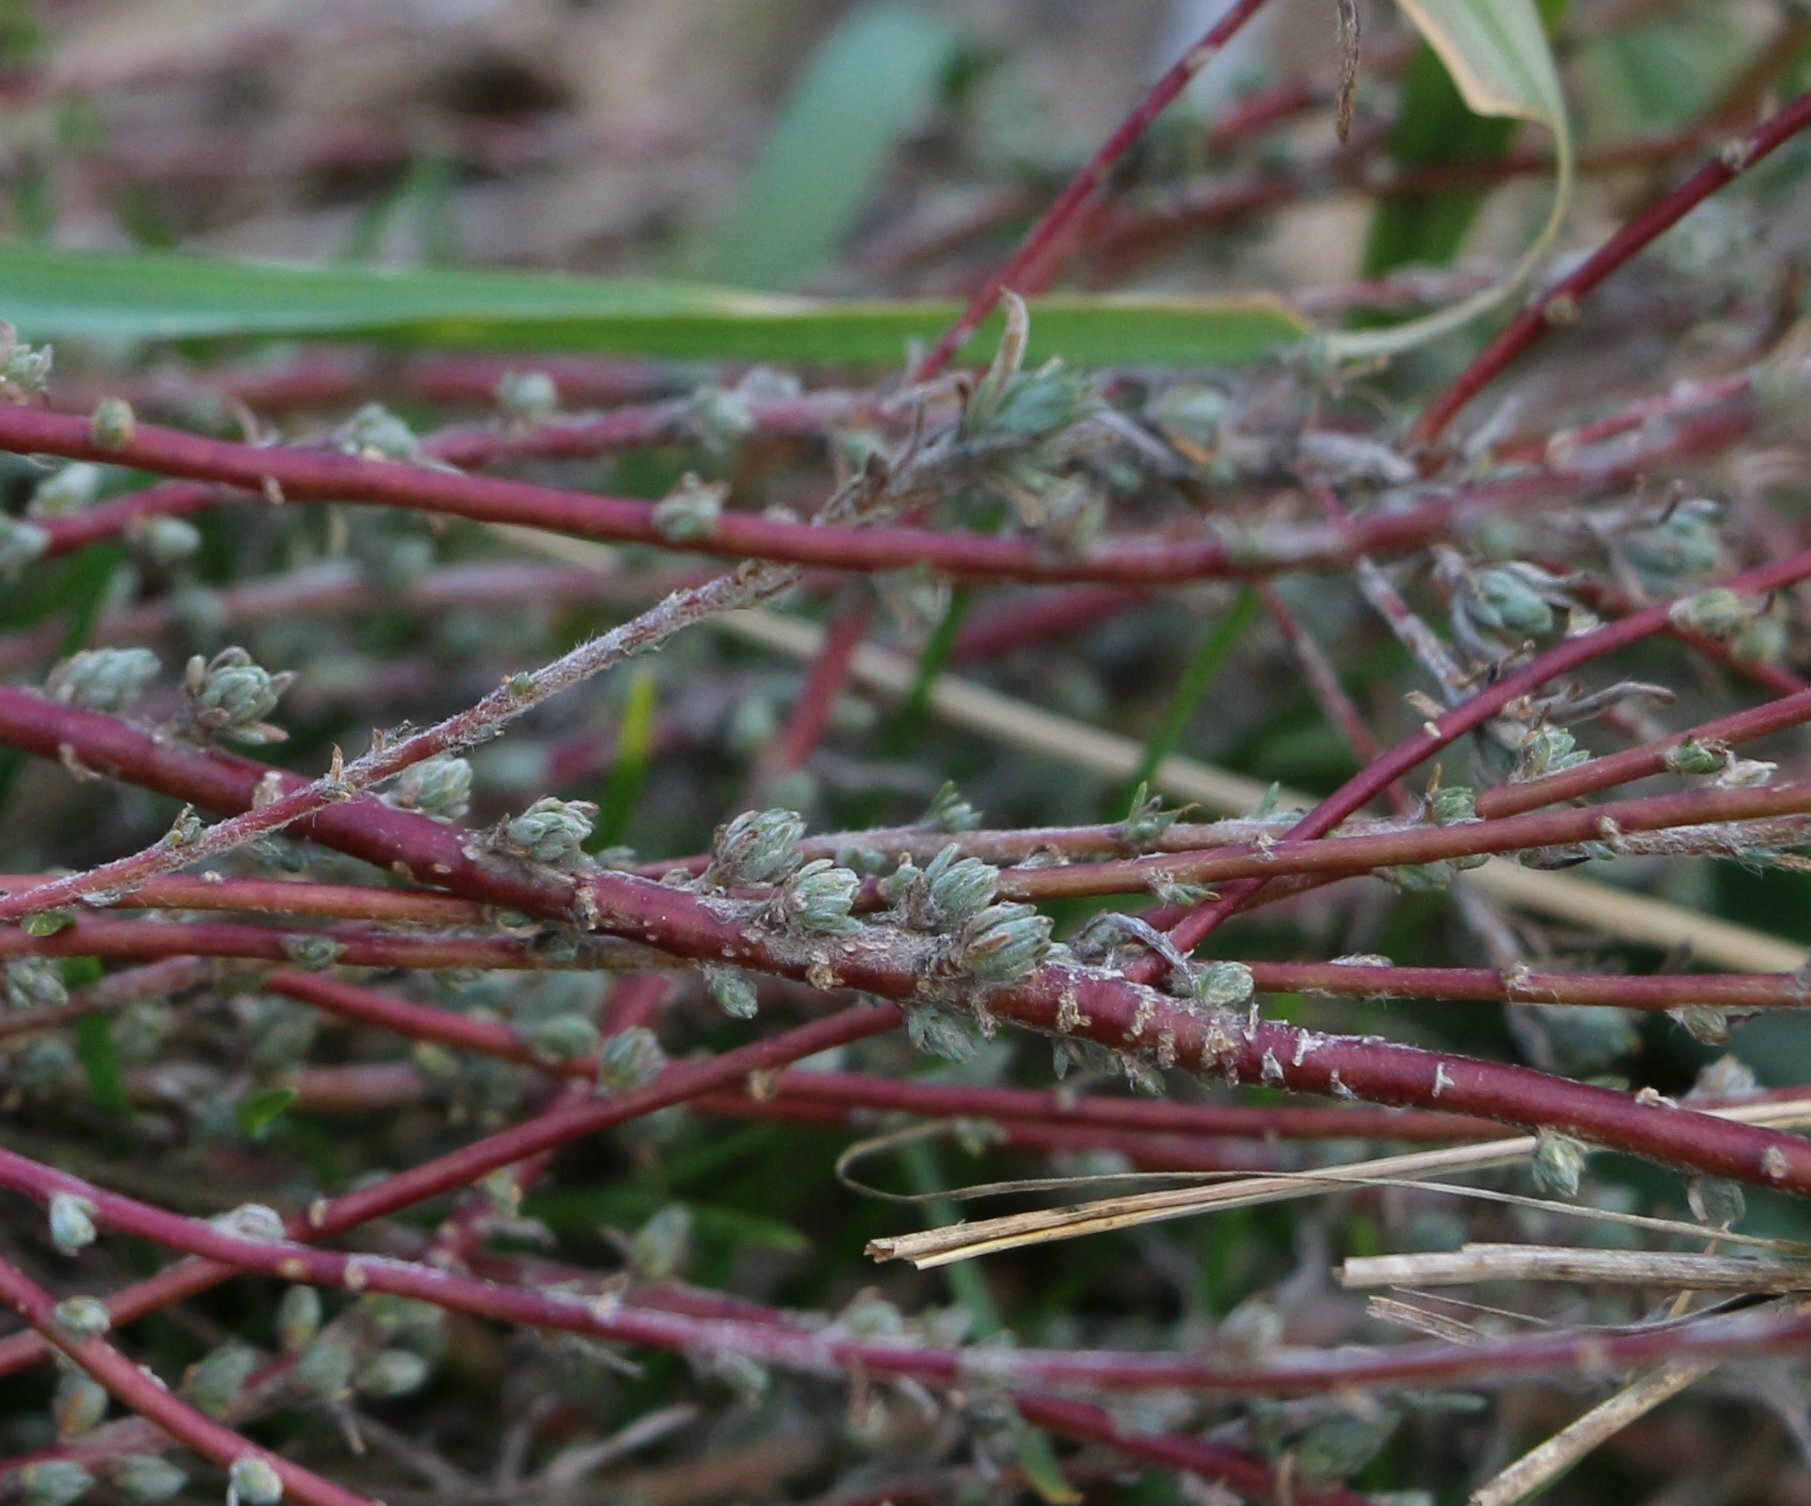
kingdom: Plantae
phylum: Tracheophyta
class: Magnoliopsida
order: Caryophyllales
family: Amaranthaceae
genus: Bassia
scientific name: Bassia prostrata
